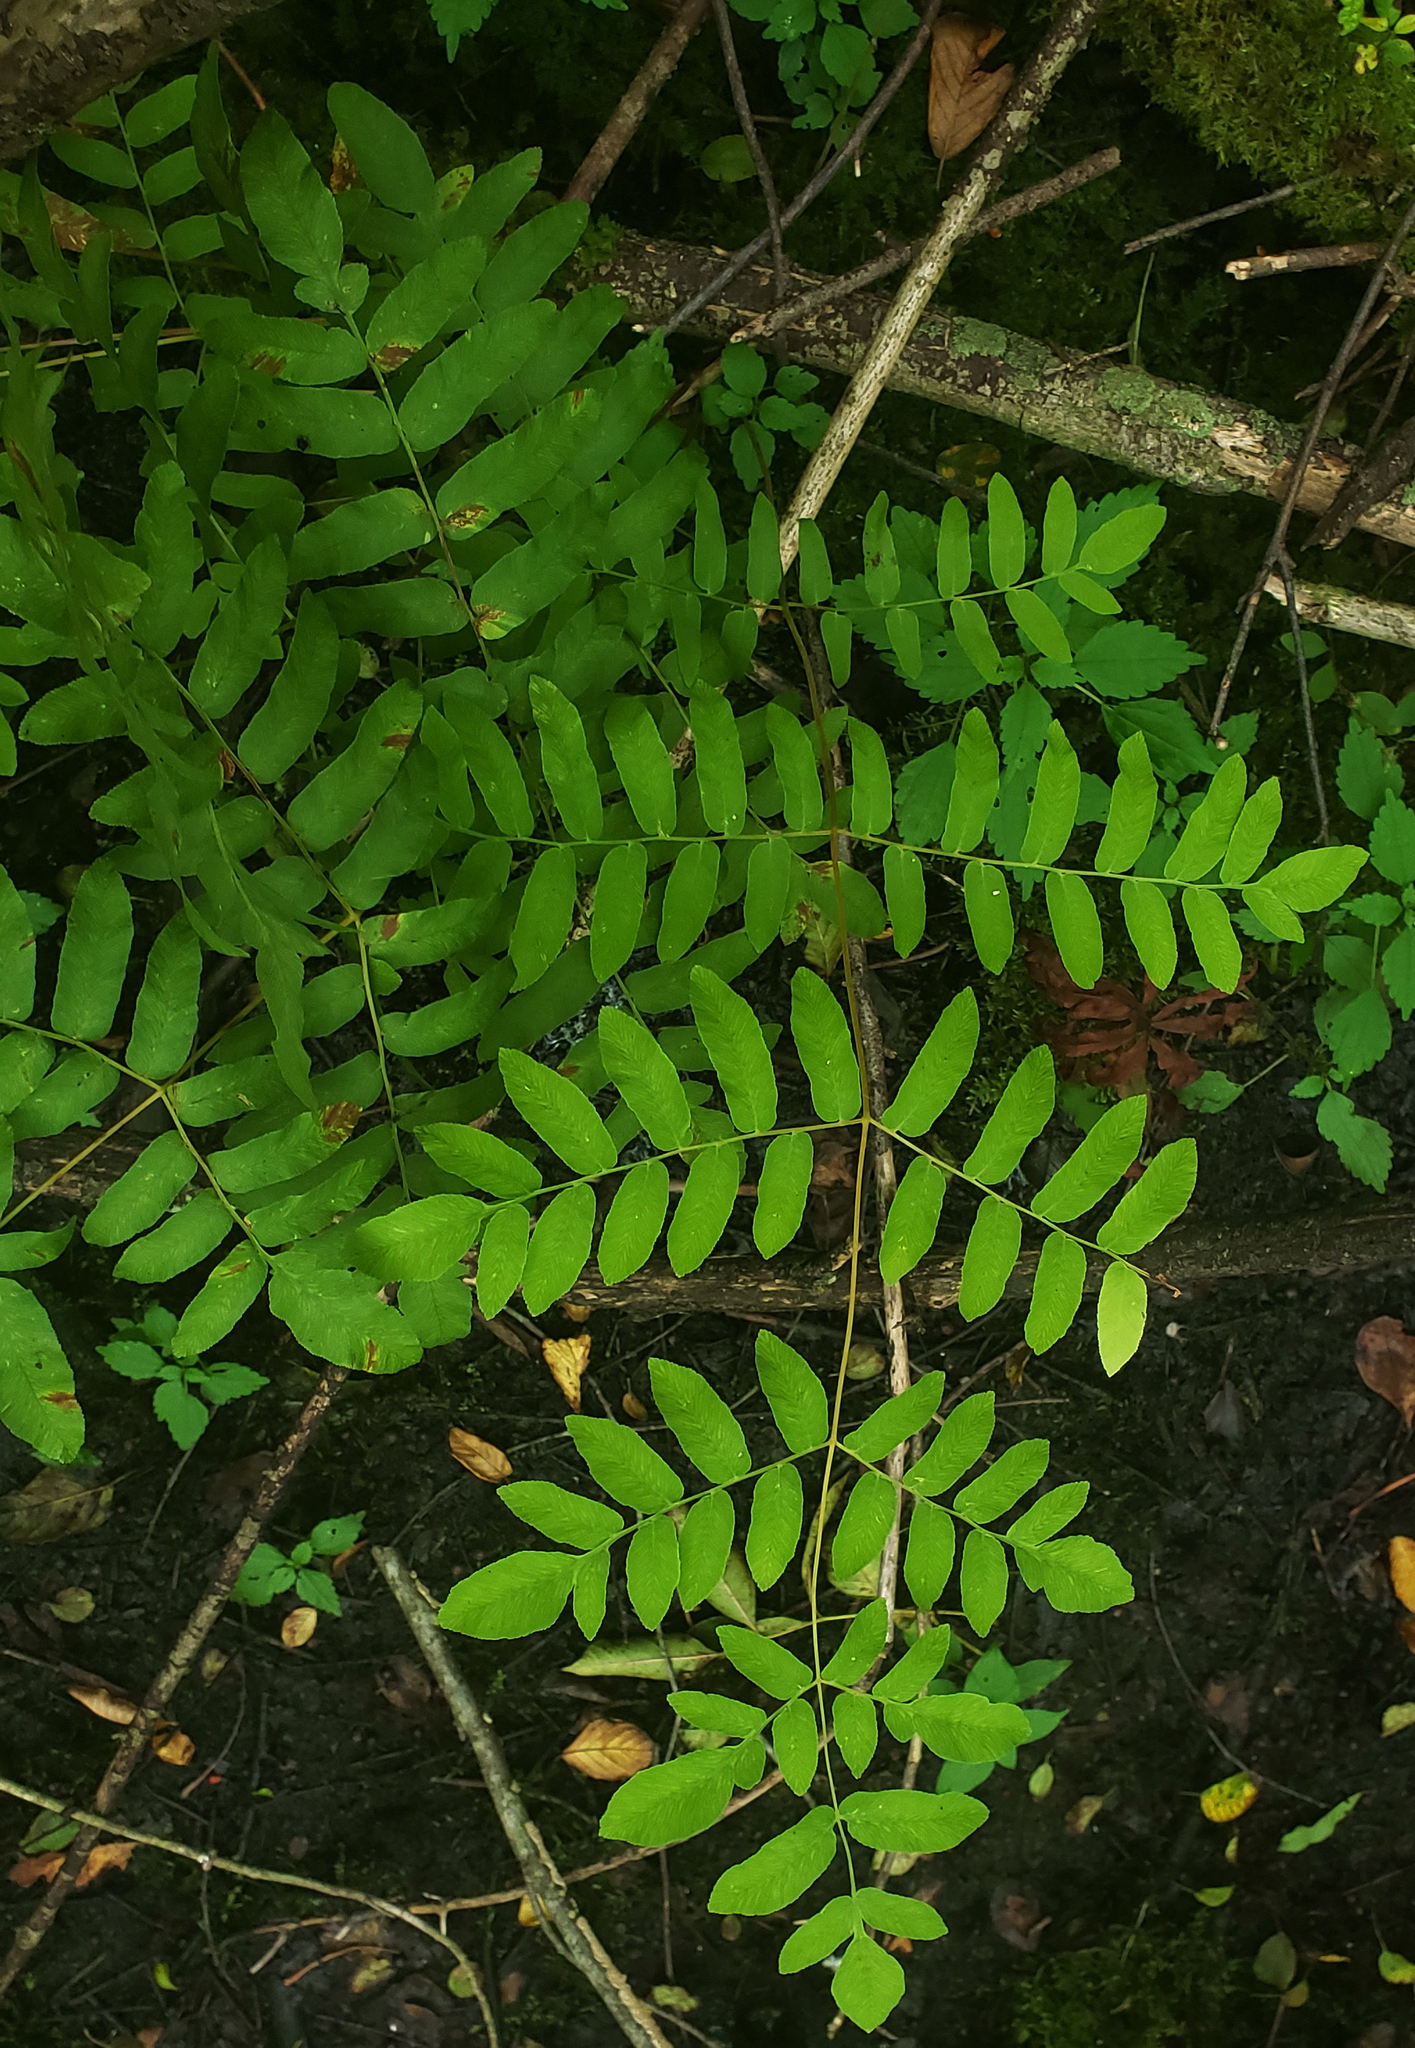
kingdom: Plantae
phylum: Tracheophyta
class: Polypodiopsida
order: Osmundales
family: Osmundaceae
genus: Osmunda
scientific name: Osmunda spectabilis
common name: American royal fern
